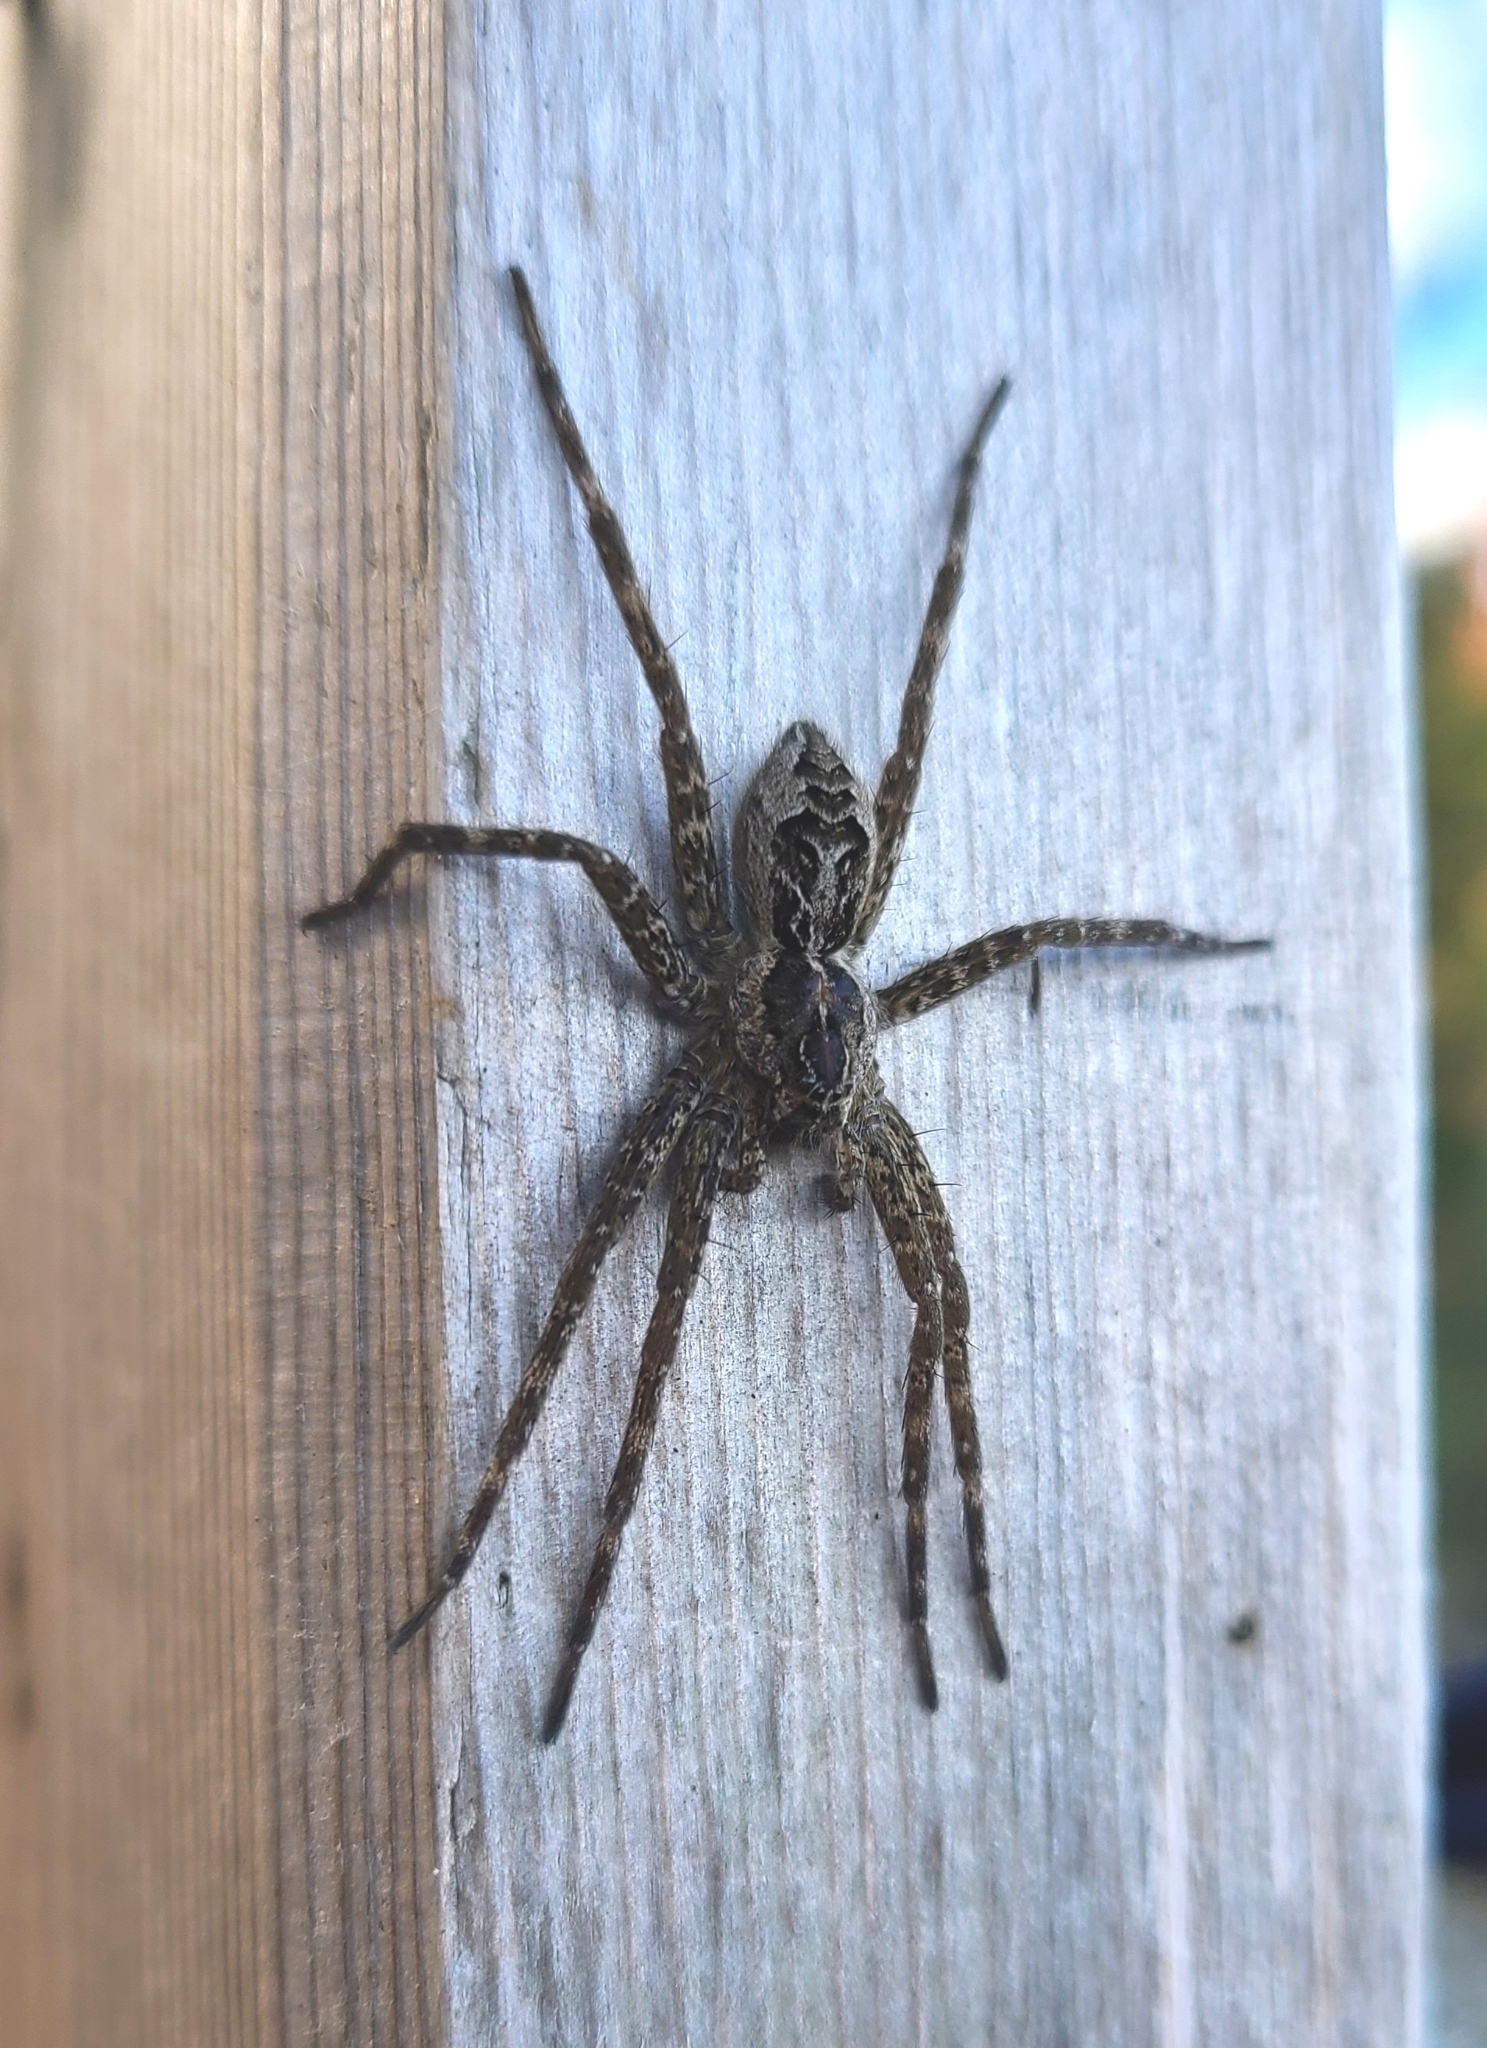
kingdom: Animalia
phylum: Arthropoda
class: Arachnida
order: Araneae
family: Pisauridae
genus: Dolomedes
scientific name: Dolomedes scriptus
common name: Striped fishing spider
